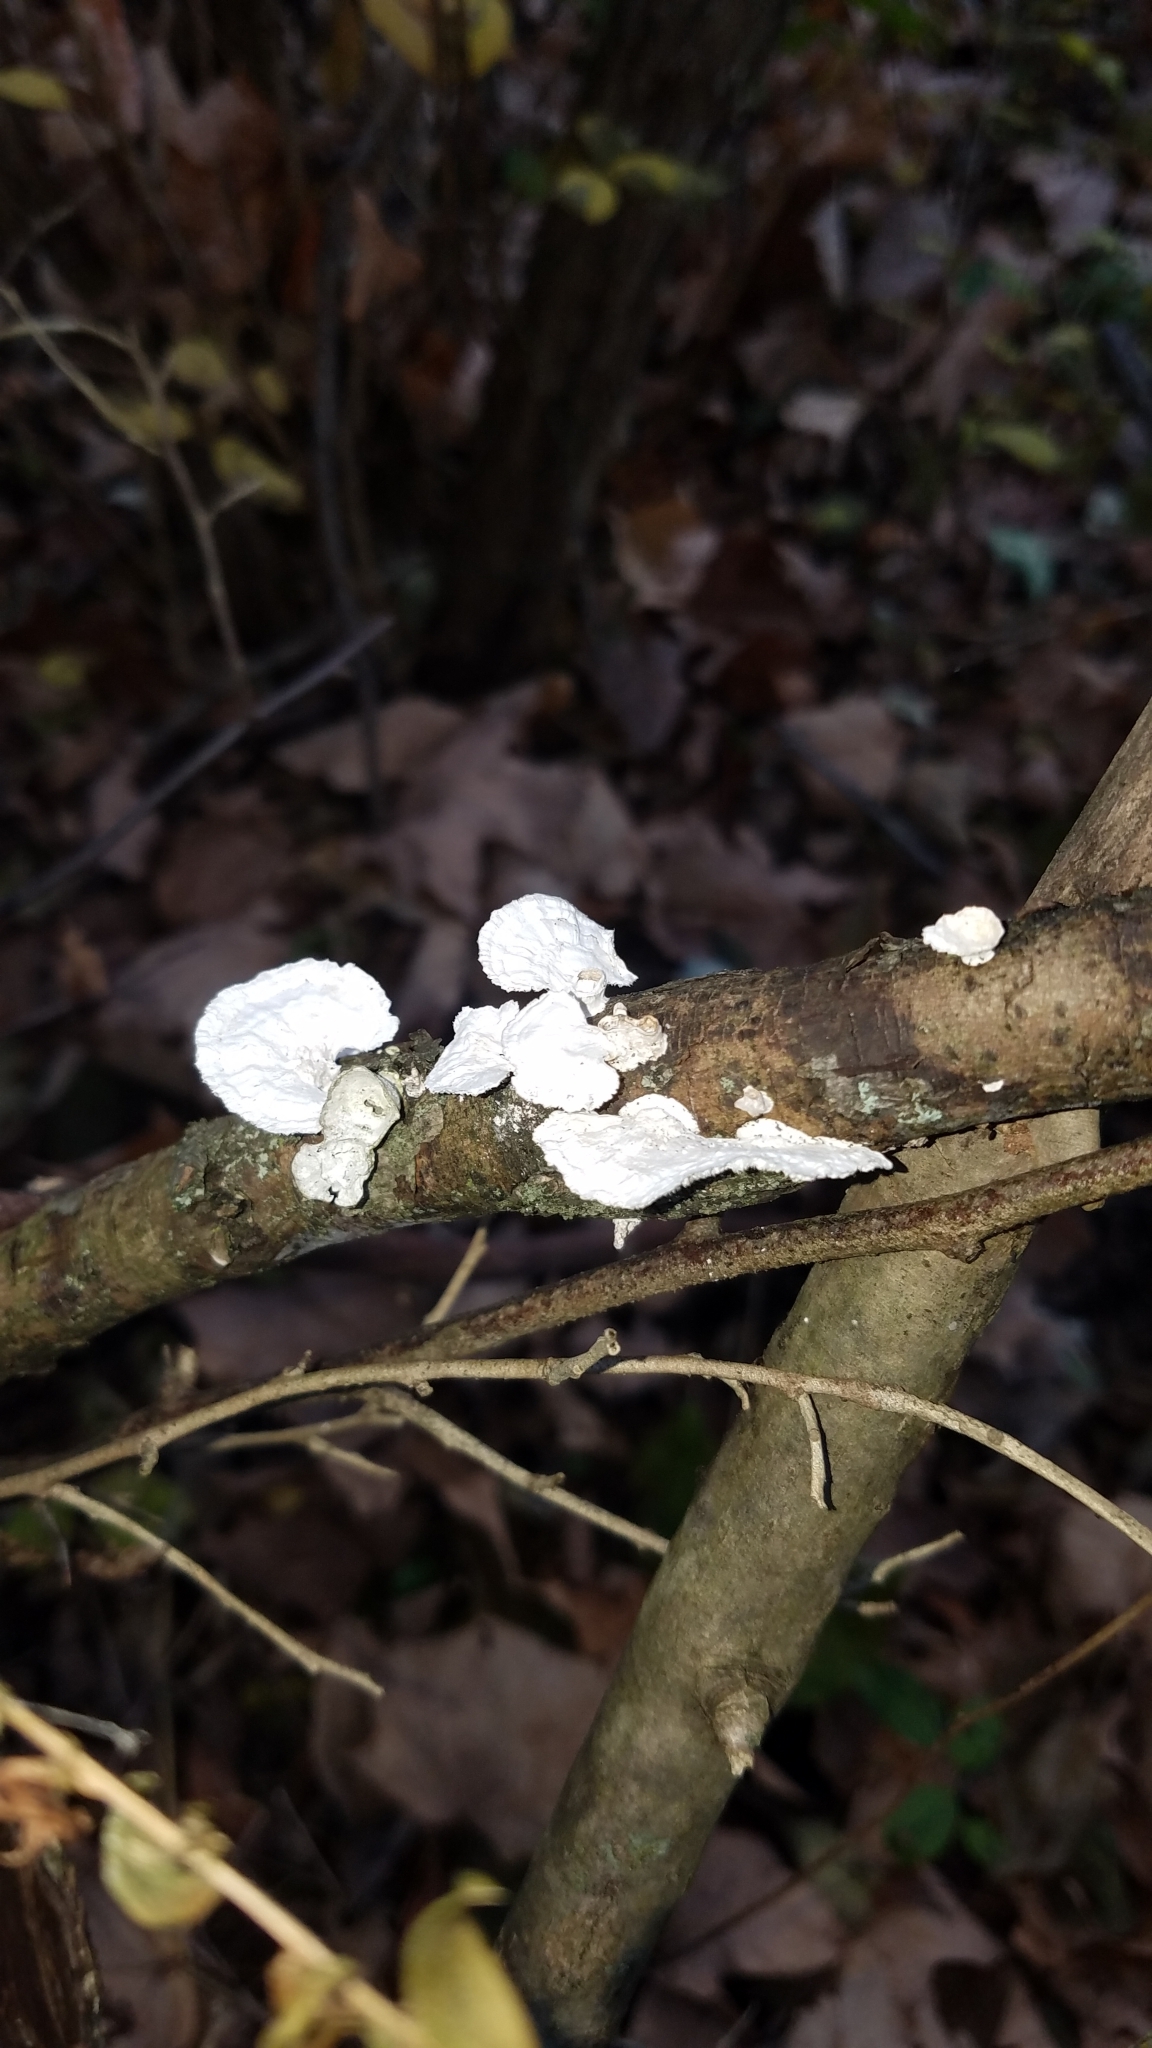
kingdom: Fungi
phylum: Basidiomycota
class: Agaricomycetes
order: Polyporales
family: Polyporaceae
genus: Poronidulus
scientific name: Poronidulus conchifer
